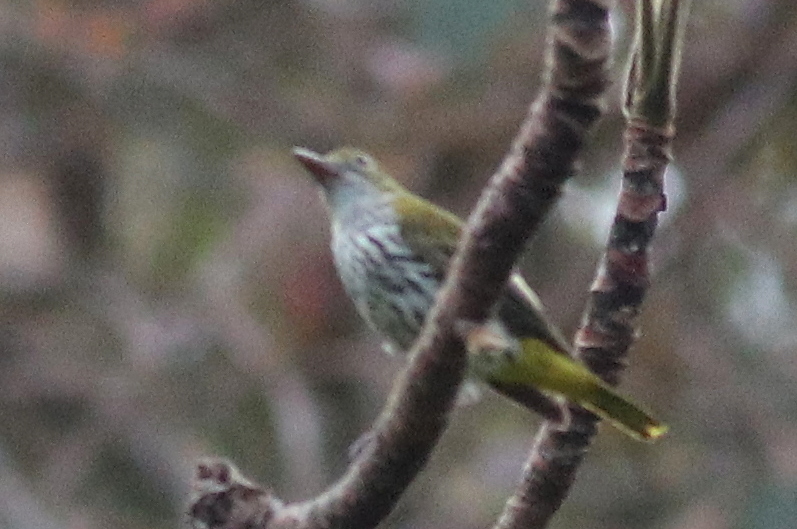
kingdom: Animalia
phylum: Chordata
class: Aves
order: Passeriformes
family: Oriolidae
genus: Oriolus
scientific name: Oriolus xanthonotus
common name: Dark-throated oriole
